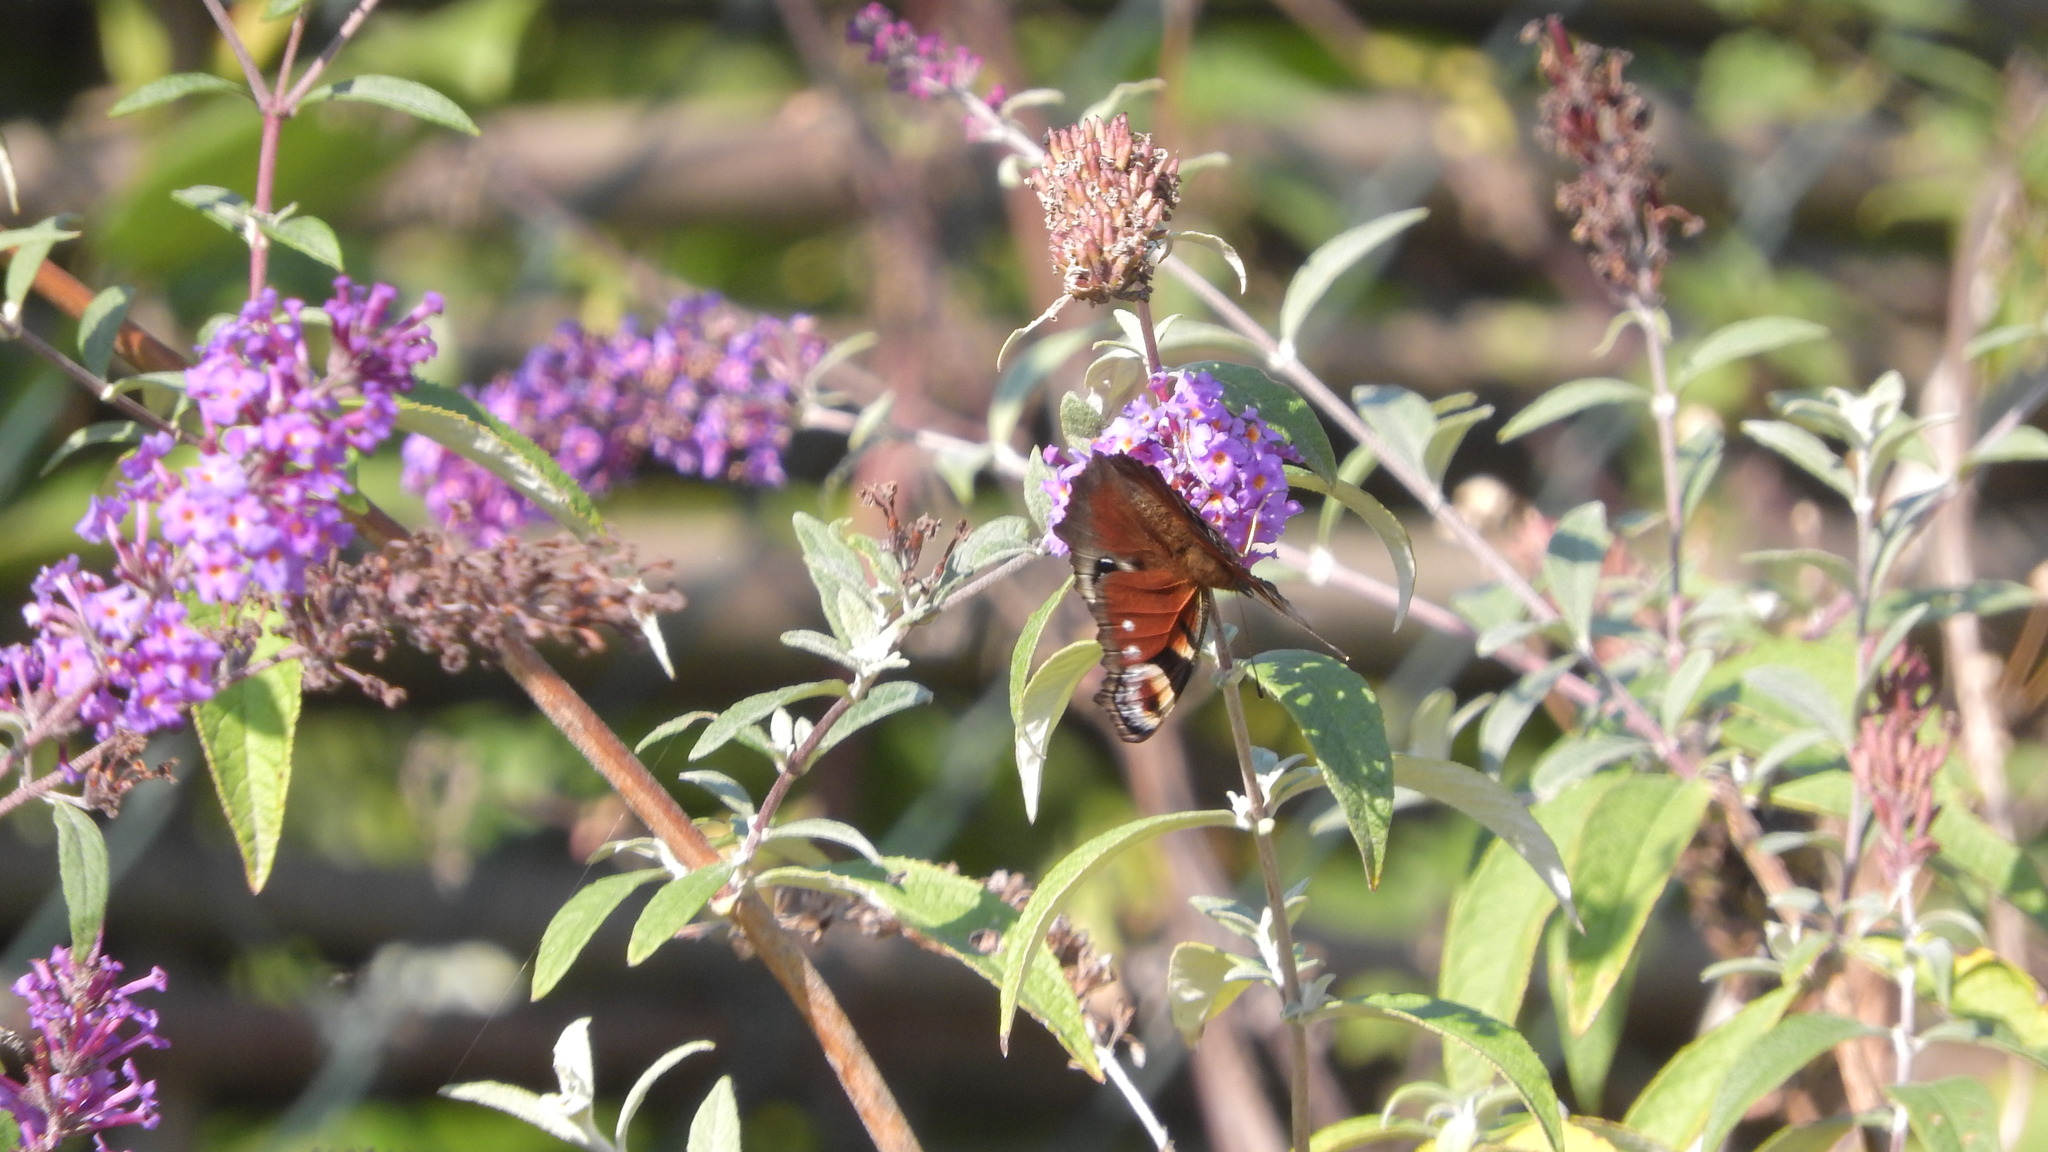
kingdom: Animalia
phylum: Arthropoda
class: Insecta
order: Lepidoptera
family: Nymphalidae
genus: Aglais
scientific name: Aglais io
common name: Peacock
